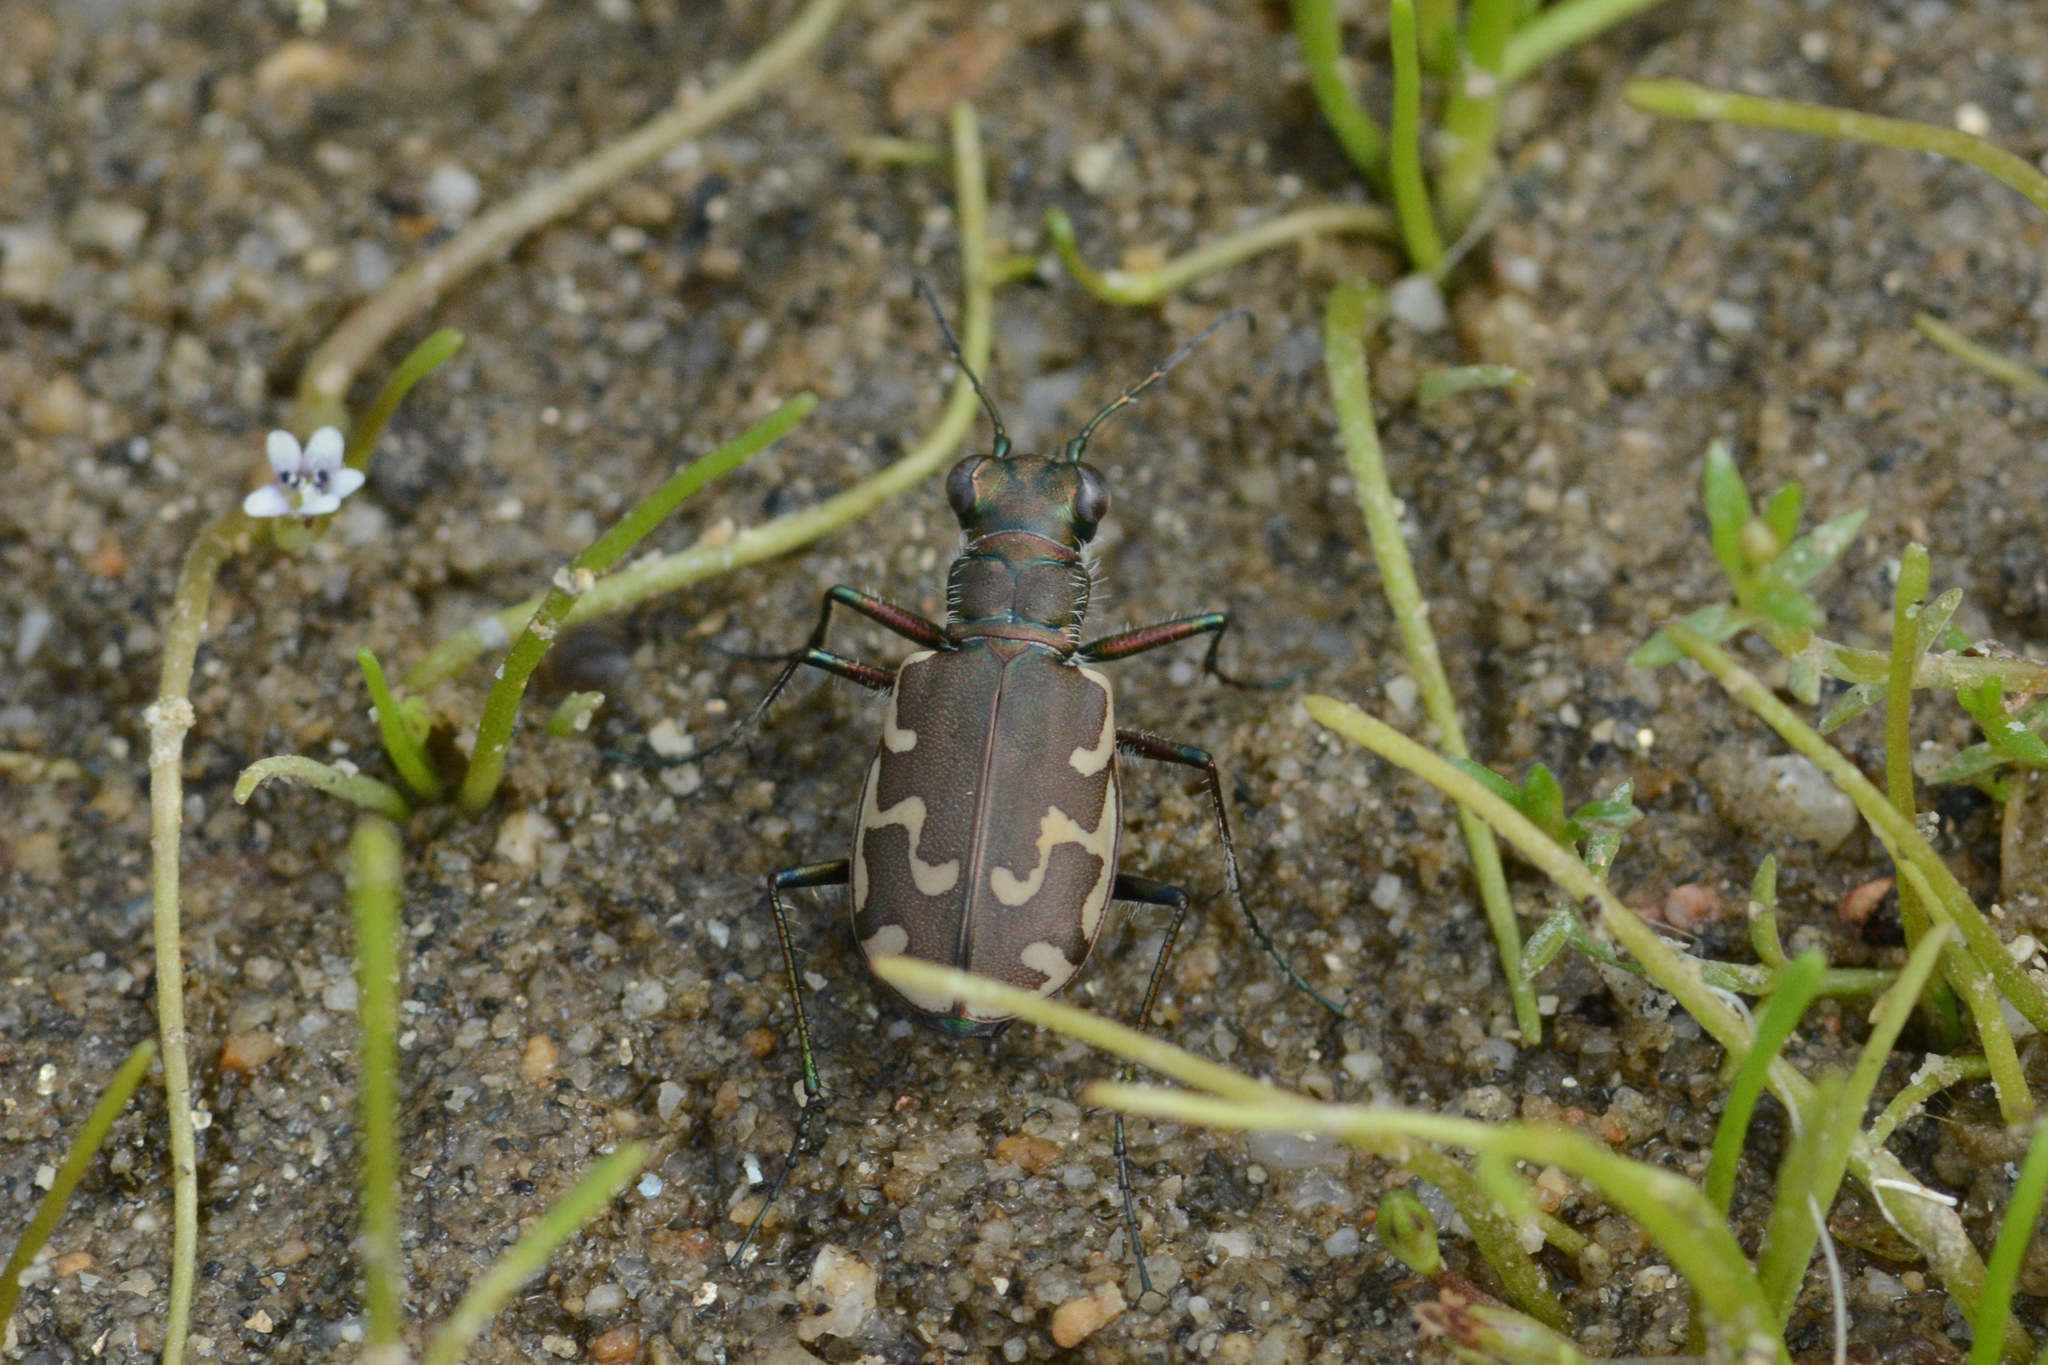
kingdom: Animalia
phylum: Arthropoda
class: Insecta
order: Coleoptera
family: Carabidae
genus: Cicindela
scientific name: Cicindela repanda
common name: Bronzed tiger beetle
